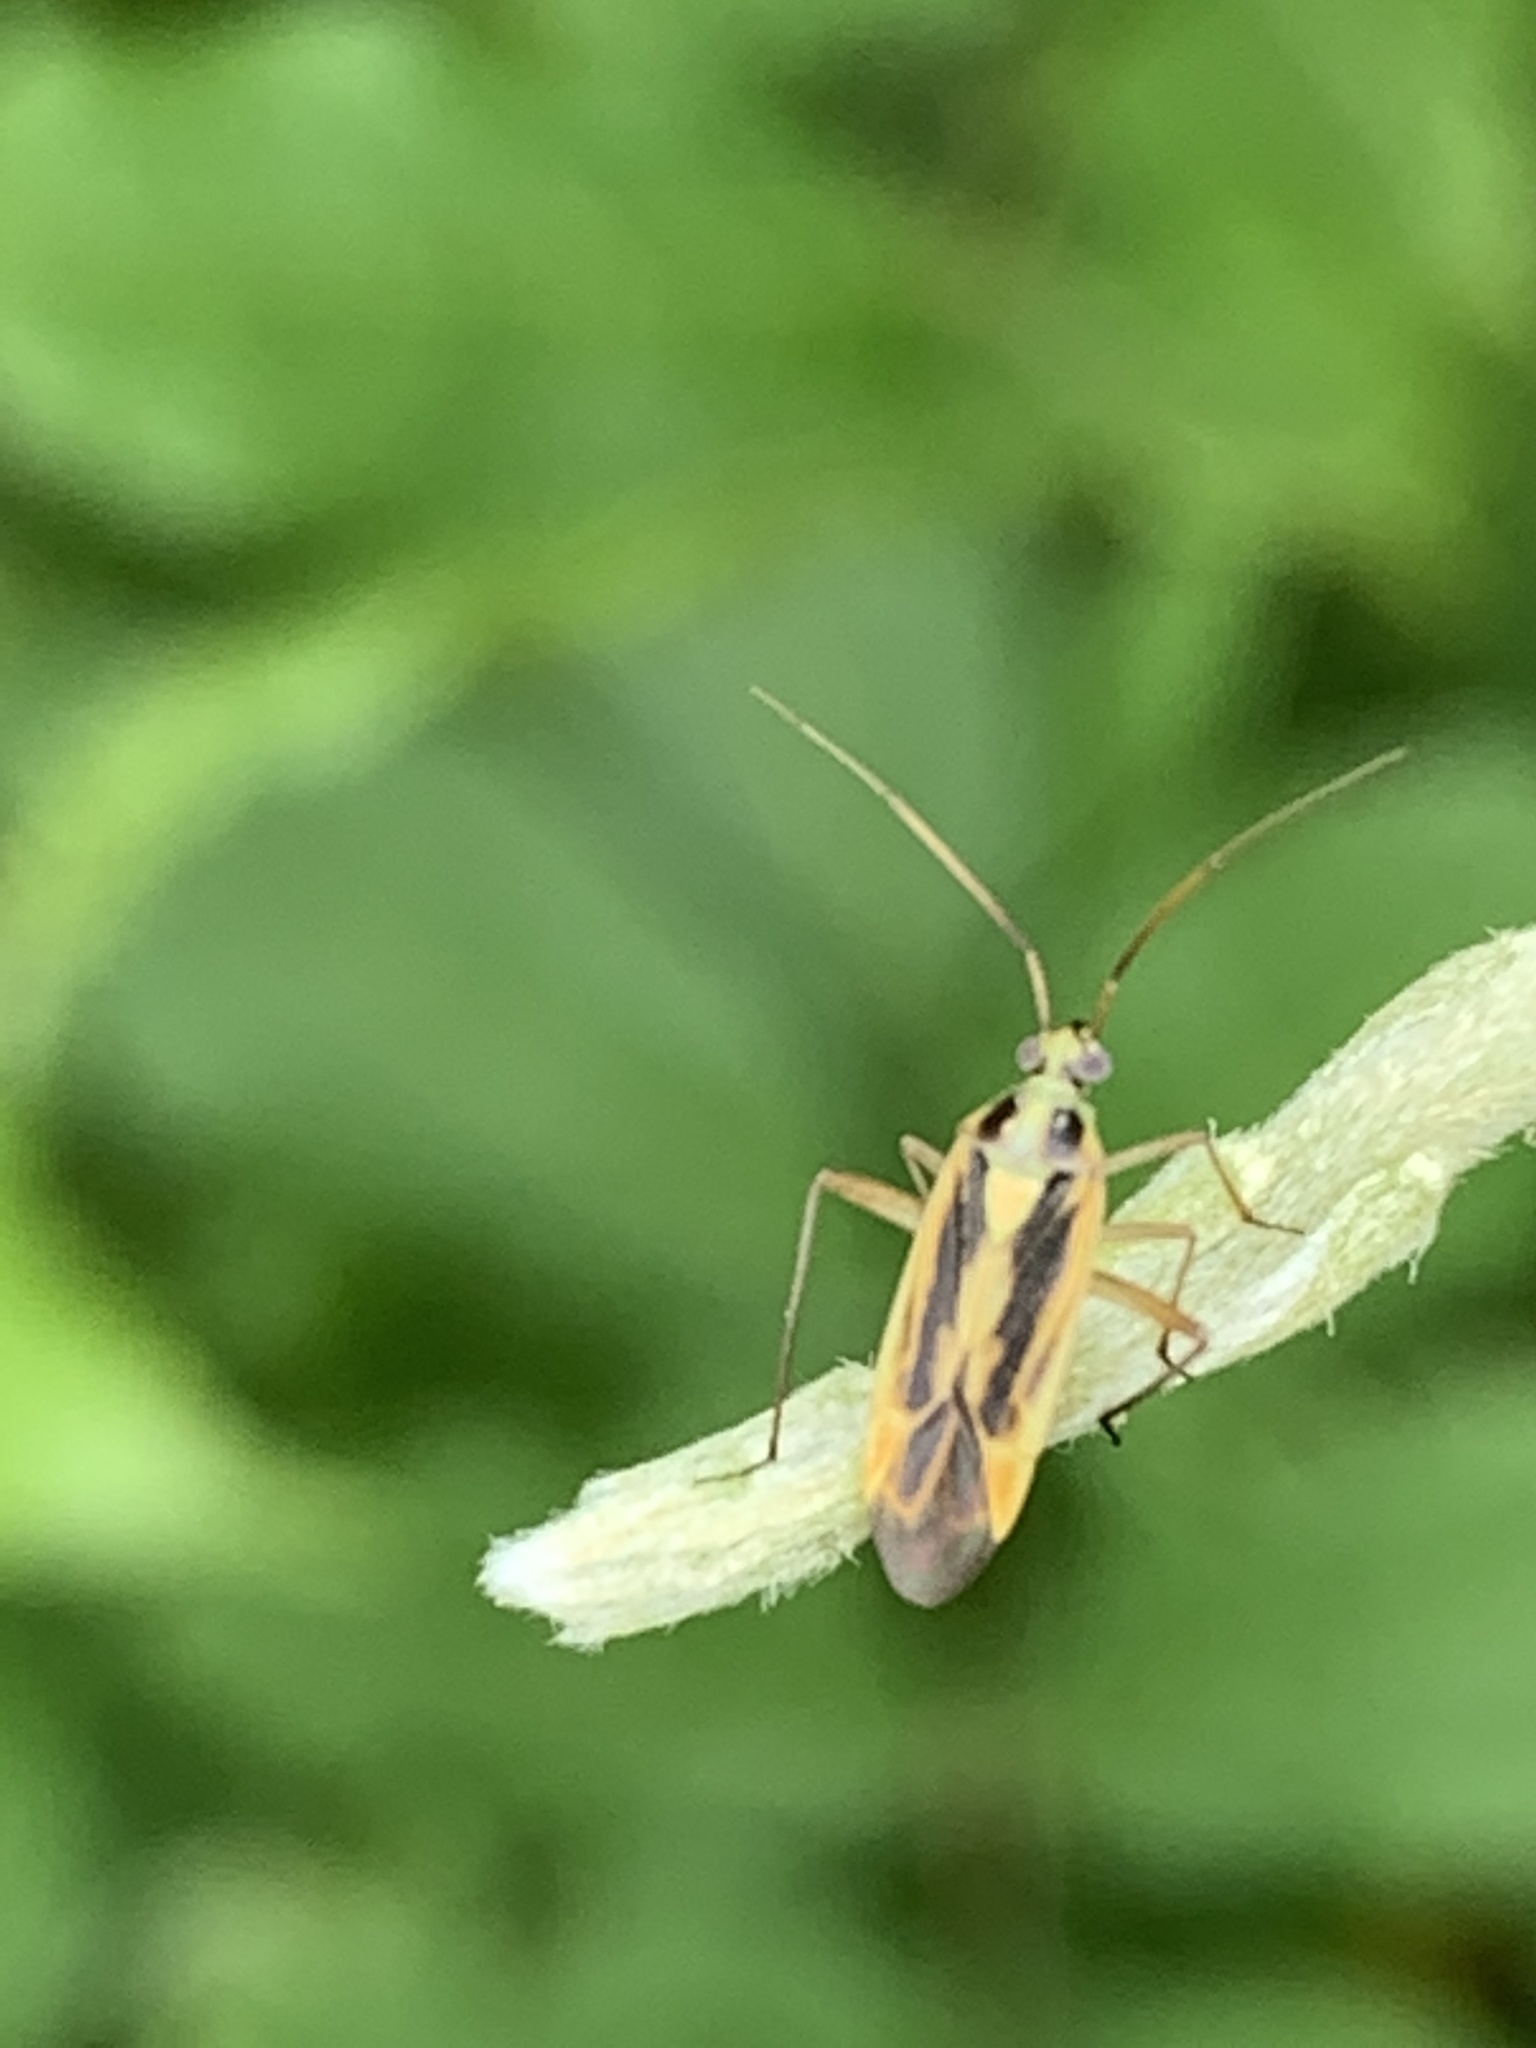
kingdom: Animalia
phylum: Arthropoda
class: Insecta
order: Hemiptera
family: Miridae
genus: Stenotus
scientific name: Stenotus binotatus
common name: Plant bug
